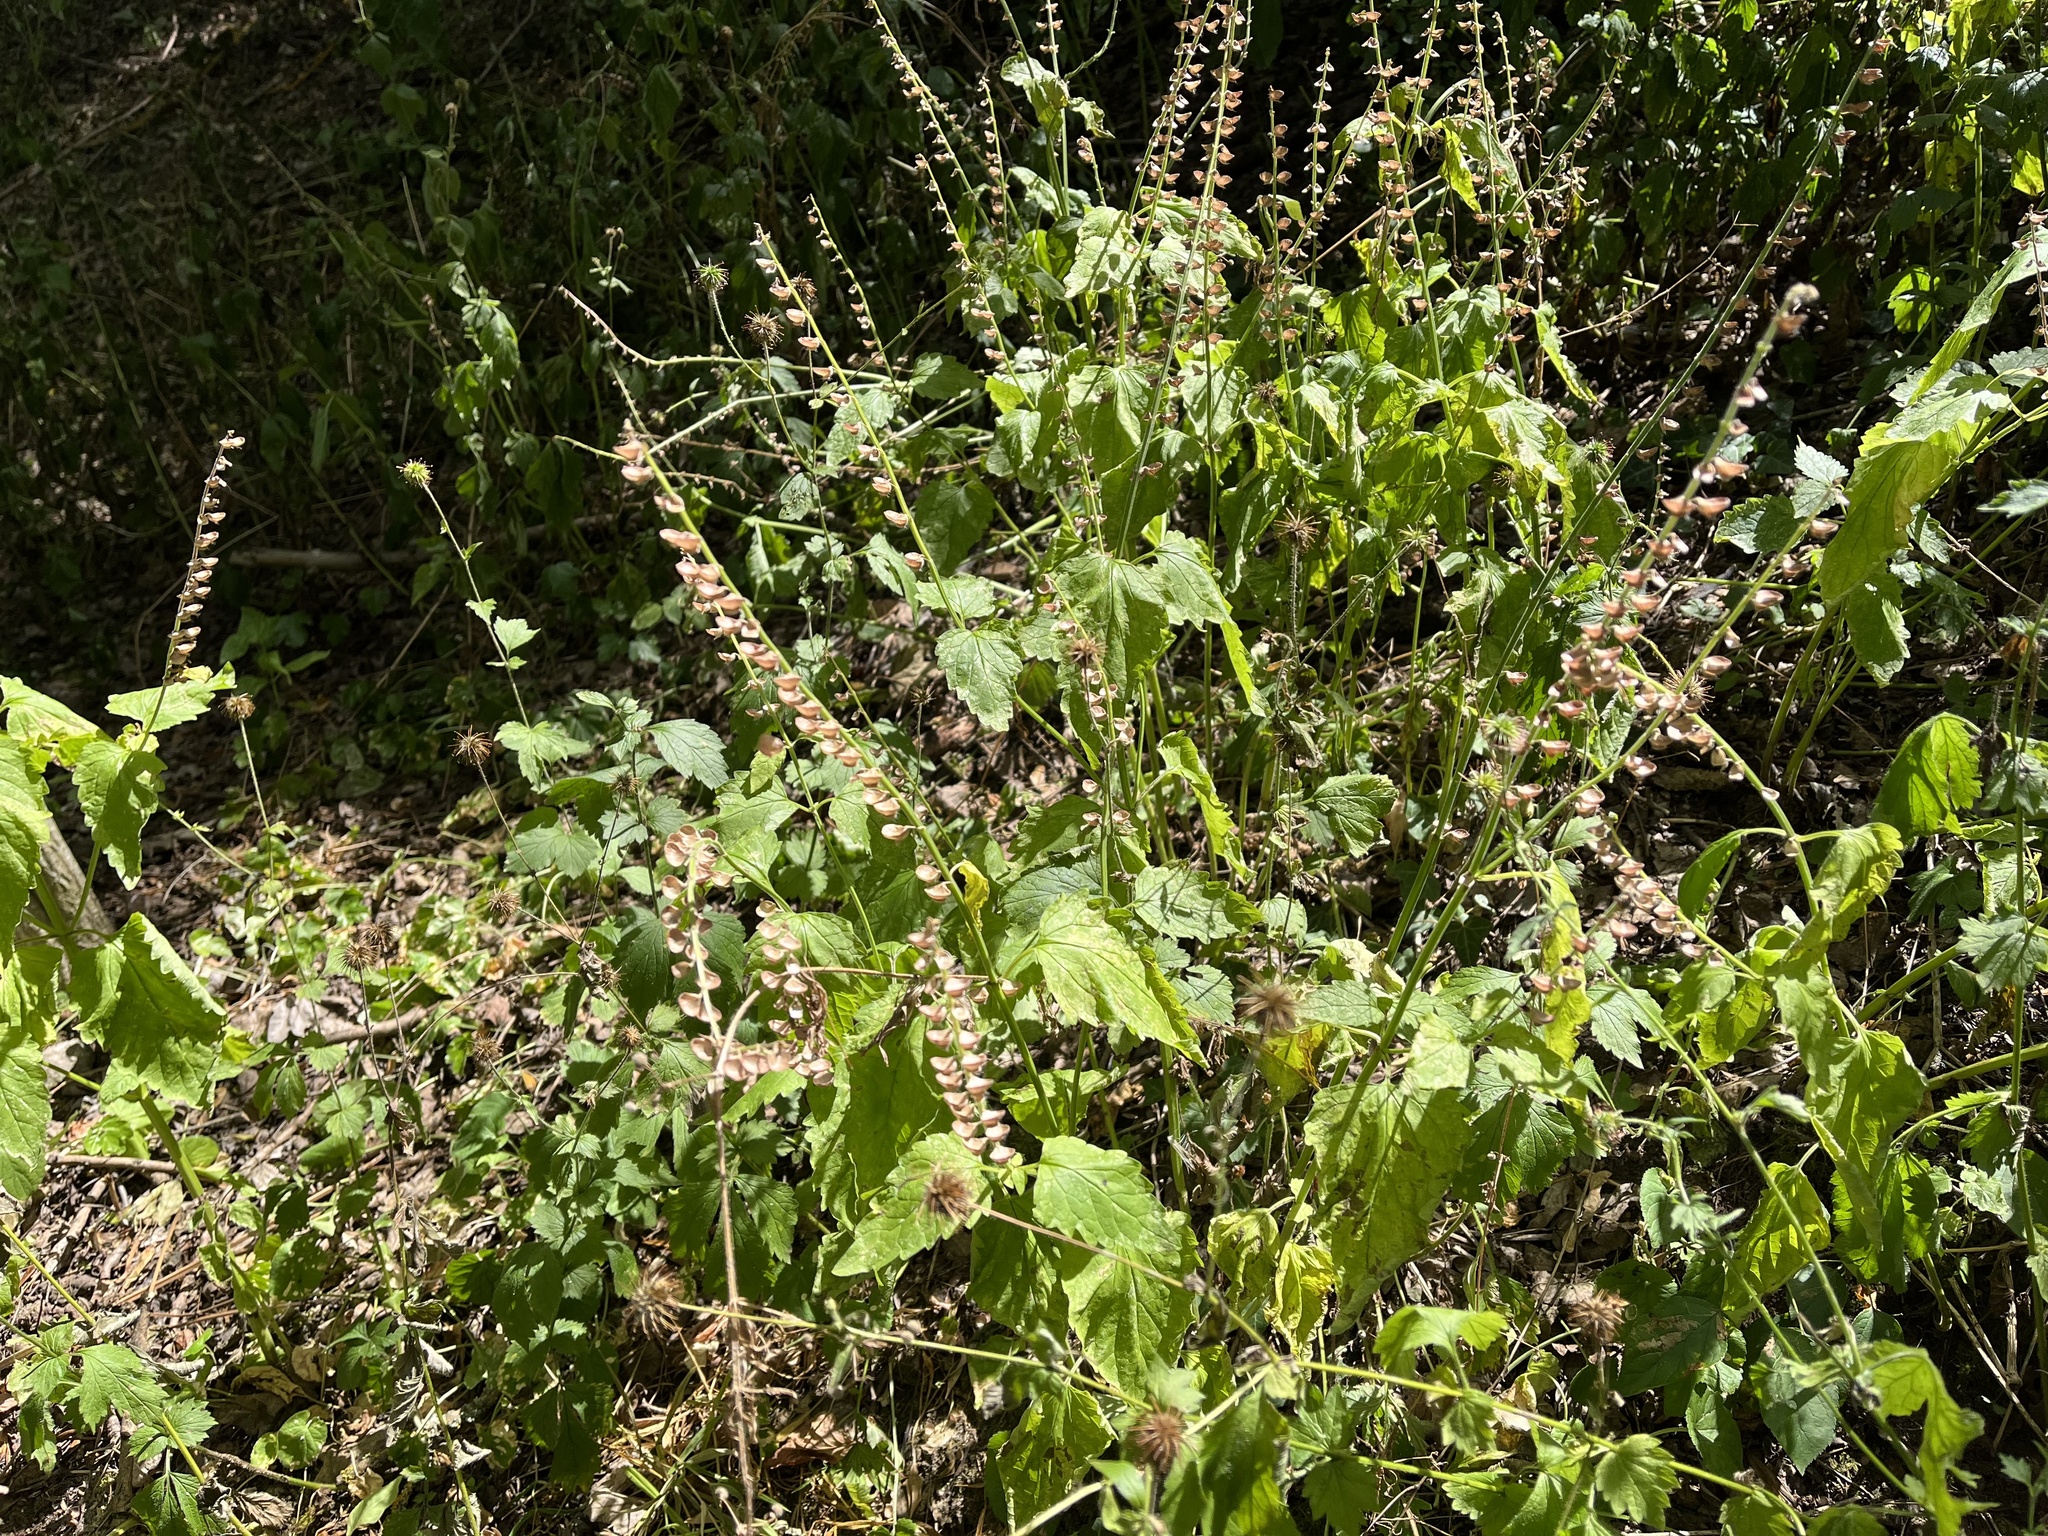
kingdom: Plantae
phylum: Tracheophyta
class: Magnoliopsida
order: Lamiales
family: Lamiaceae
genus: Scutellaria
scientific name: Scutellaria altissima
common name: Somerset skullcap
